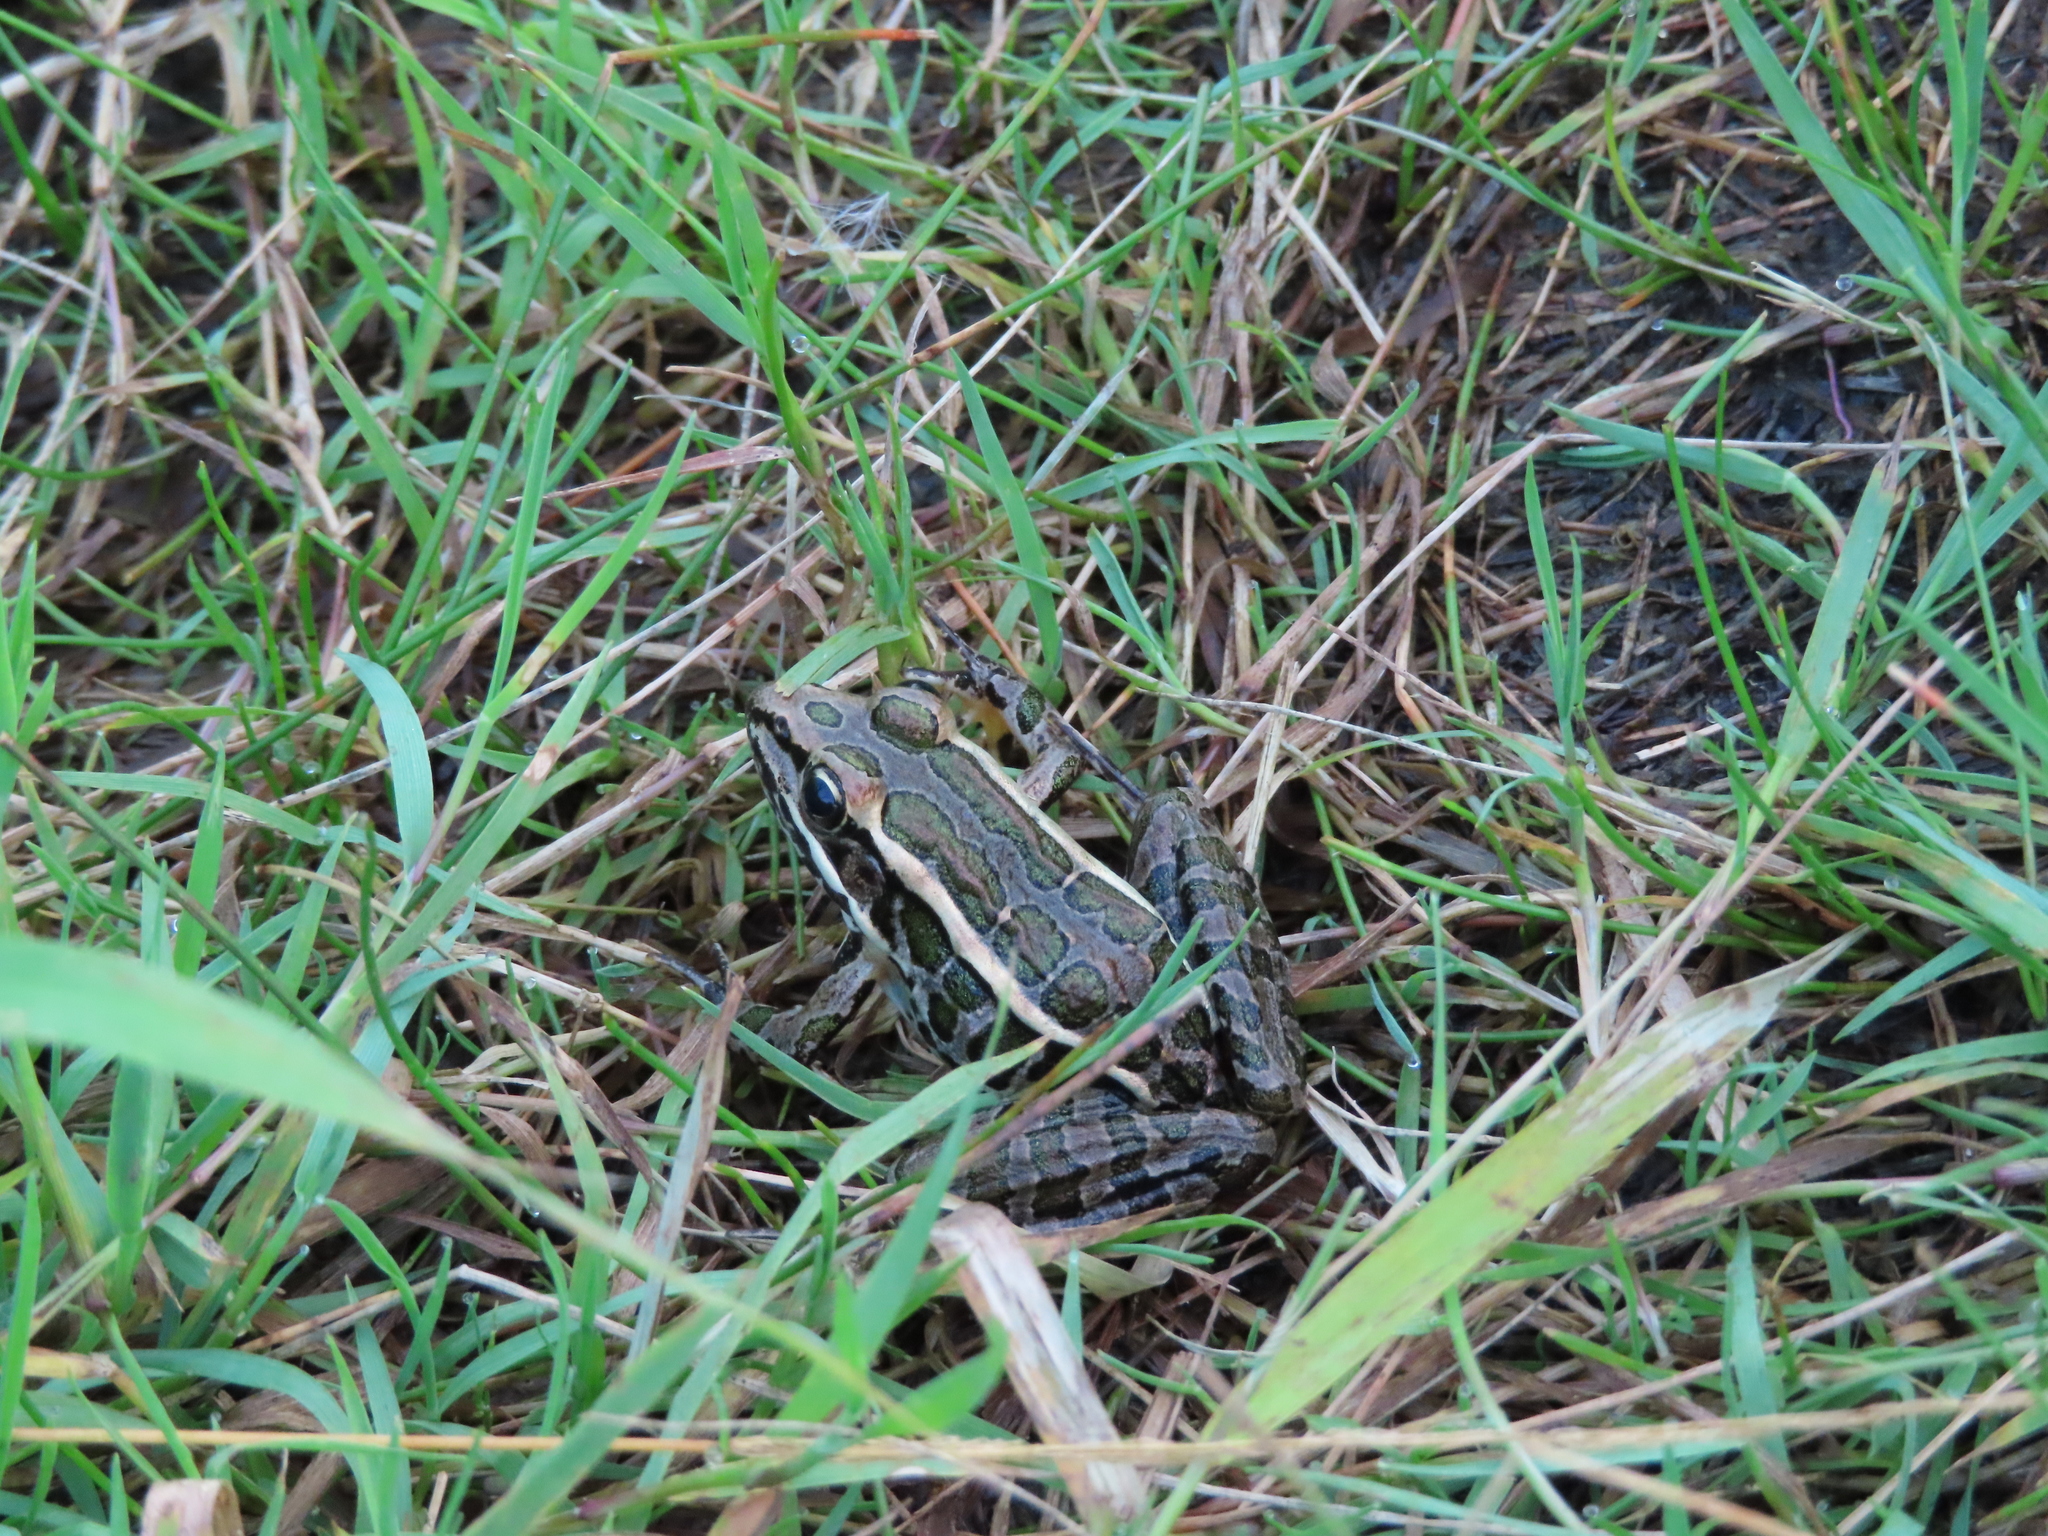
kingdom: Animalia
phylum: Chordata
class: Amphibia
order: Anura
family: Ranidae
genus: Lithobates
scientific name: Lithobates palustris
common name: Pickerel frog
